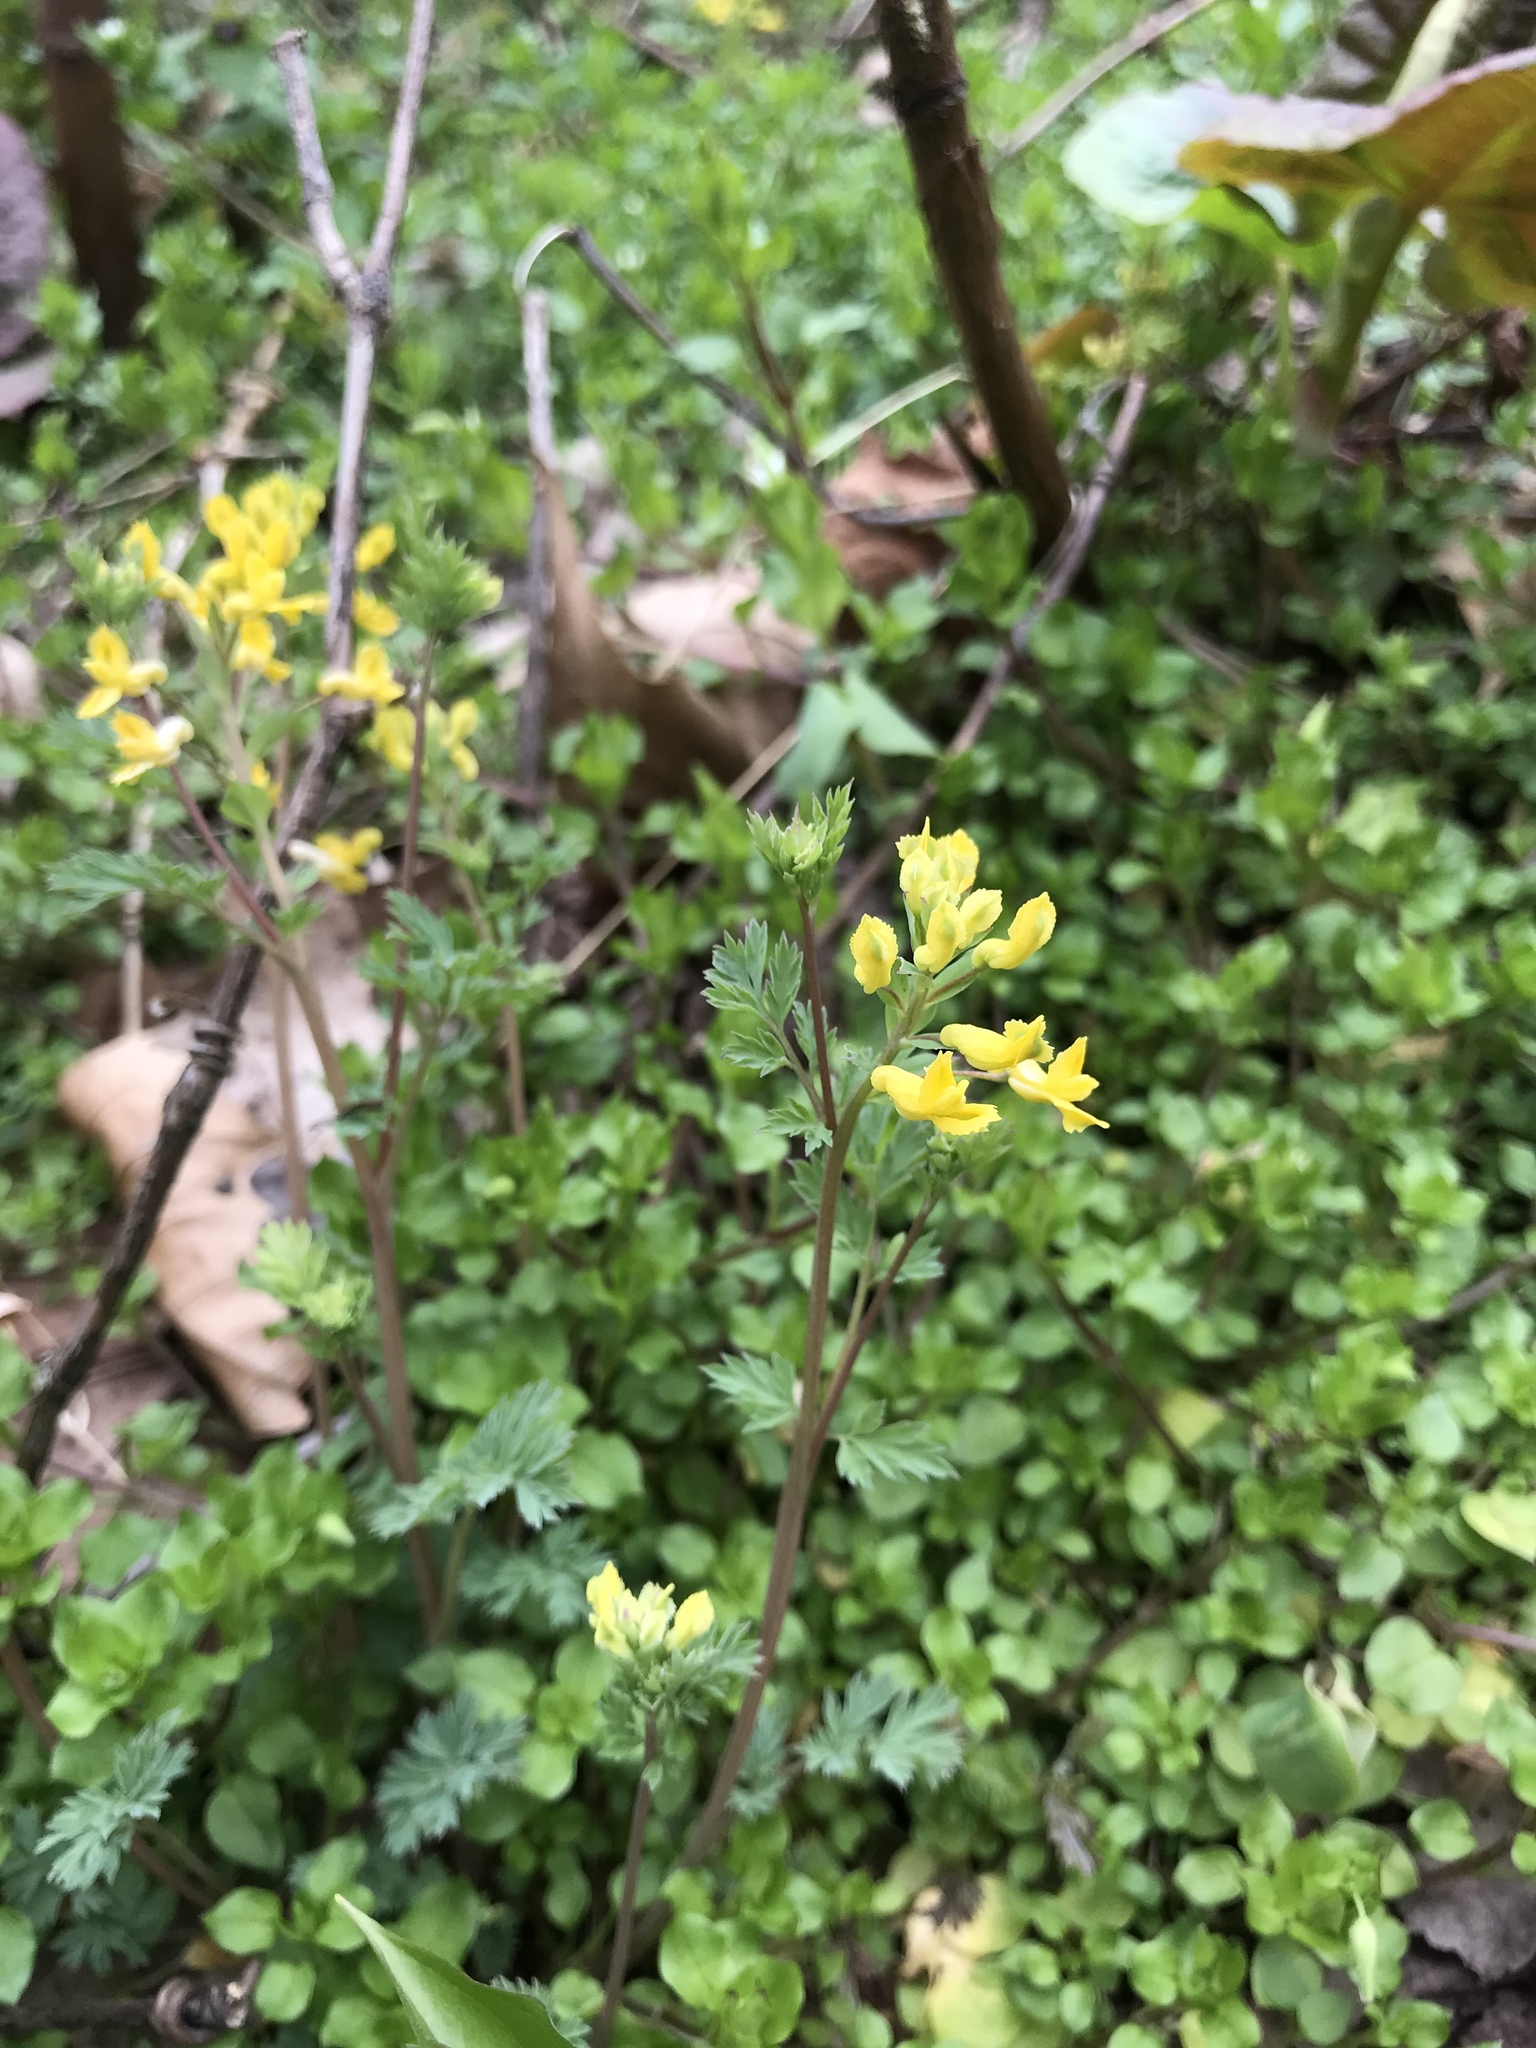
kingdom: Plantae
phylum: Tracheophyta
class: Magnoliopsida
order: Ranunculales
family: Papaveraceae
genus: Corydalis
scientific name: Corydalis flavula
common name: Yellow corydalis
